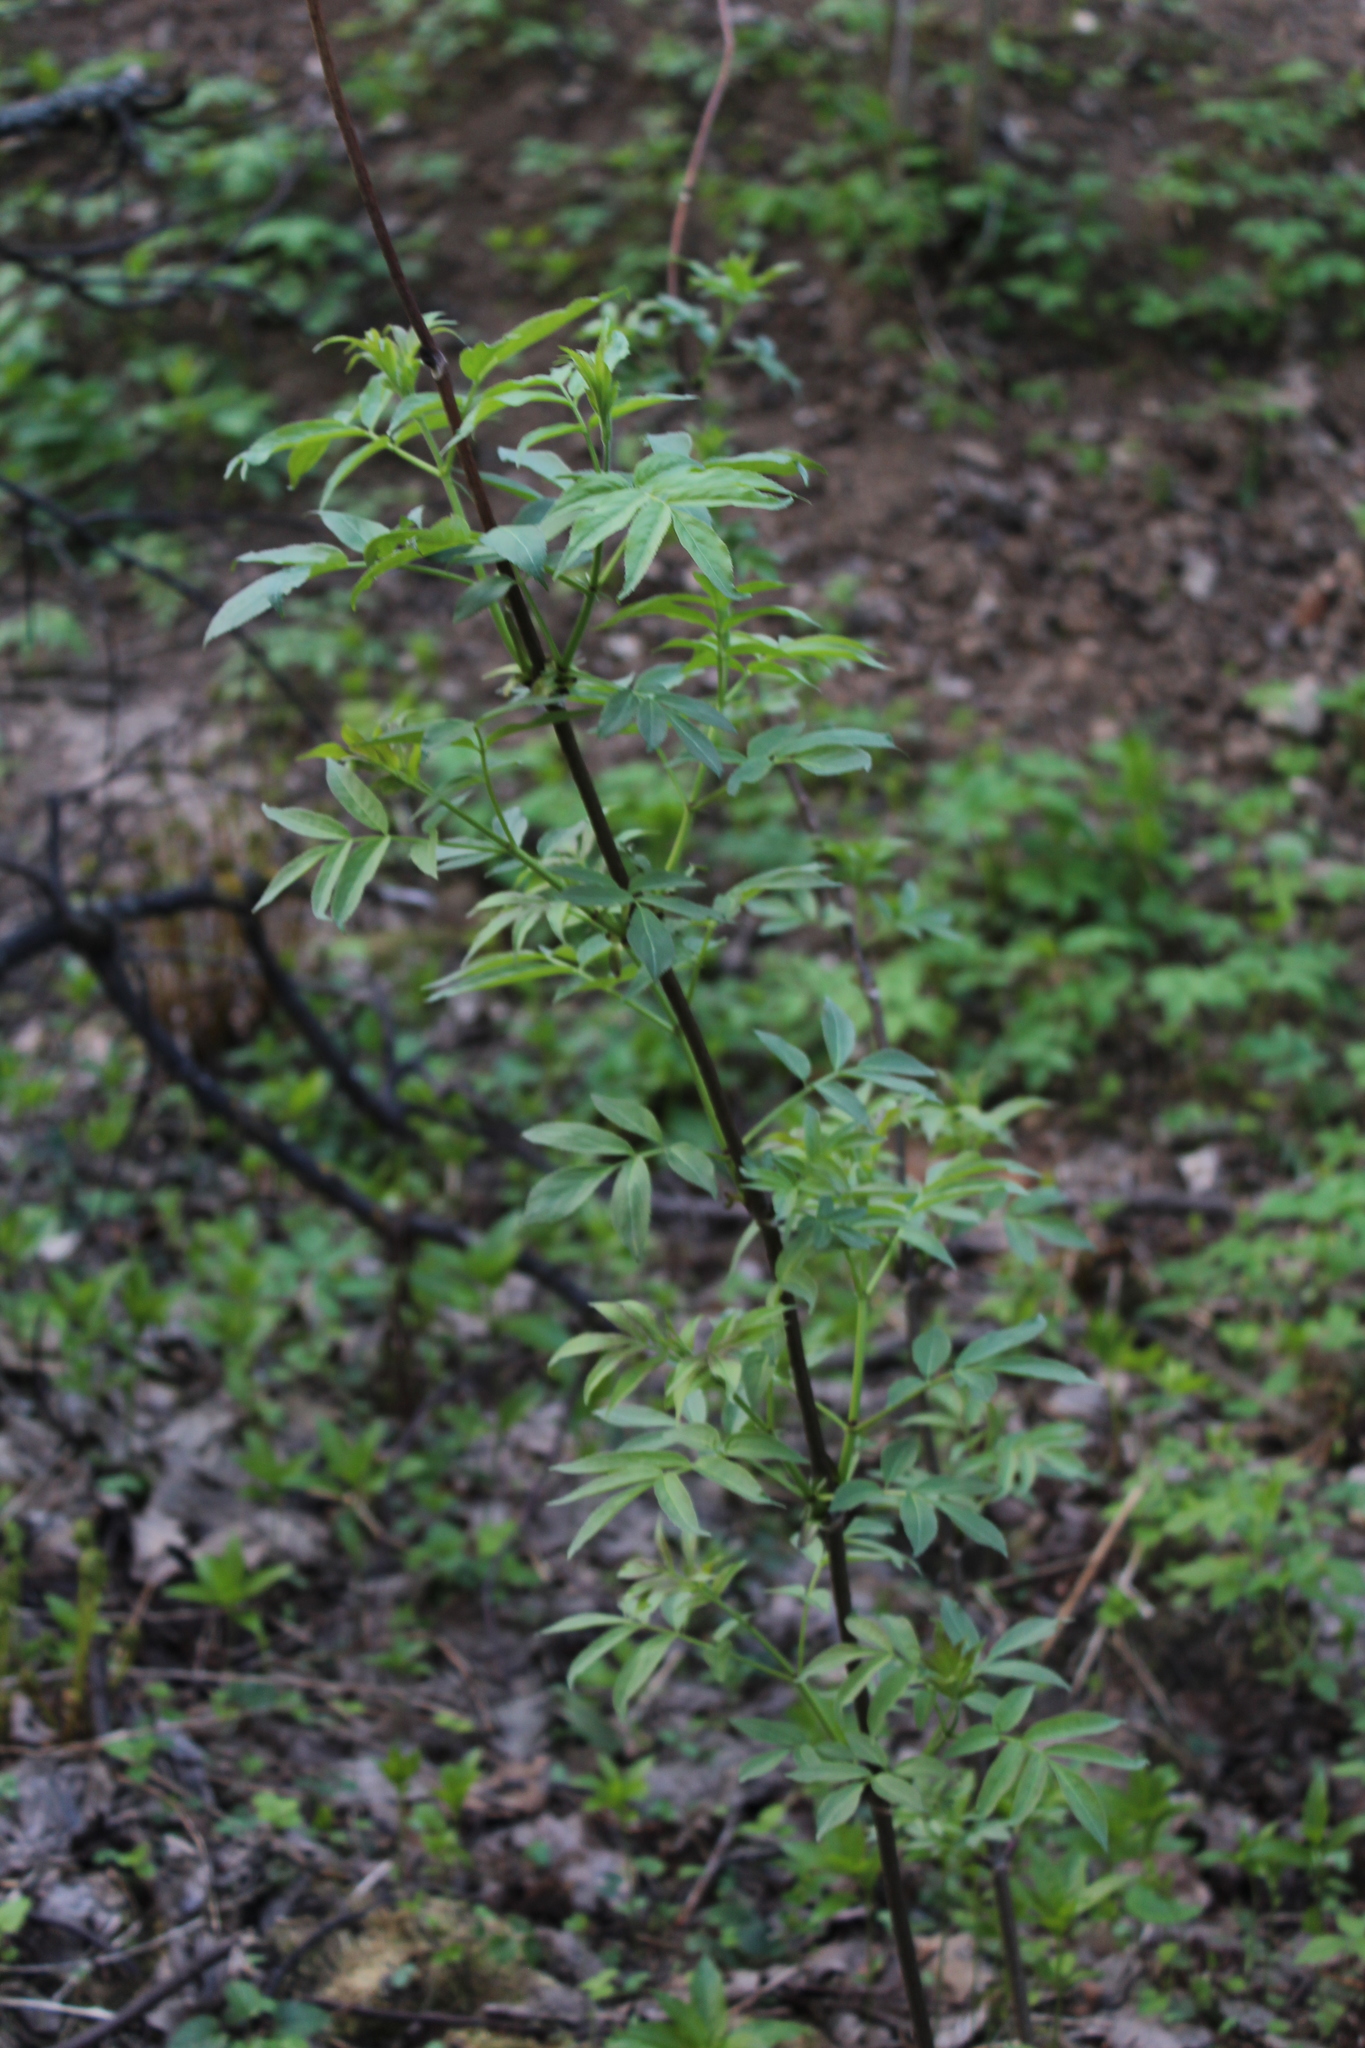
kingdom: Plantae
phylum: Tracheophyta
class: Magnoliopsida
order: Dipsacales
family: Viburnaceae
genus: Sambucus
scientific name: Sambucus racemosa
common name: Red-berried elder
